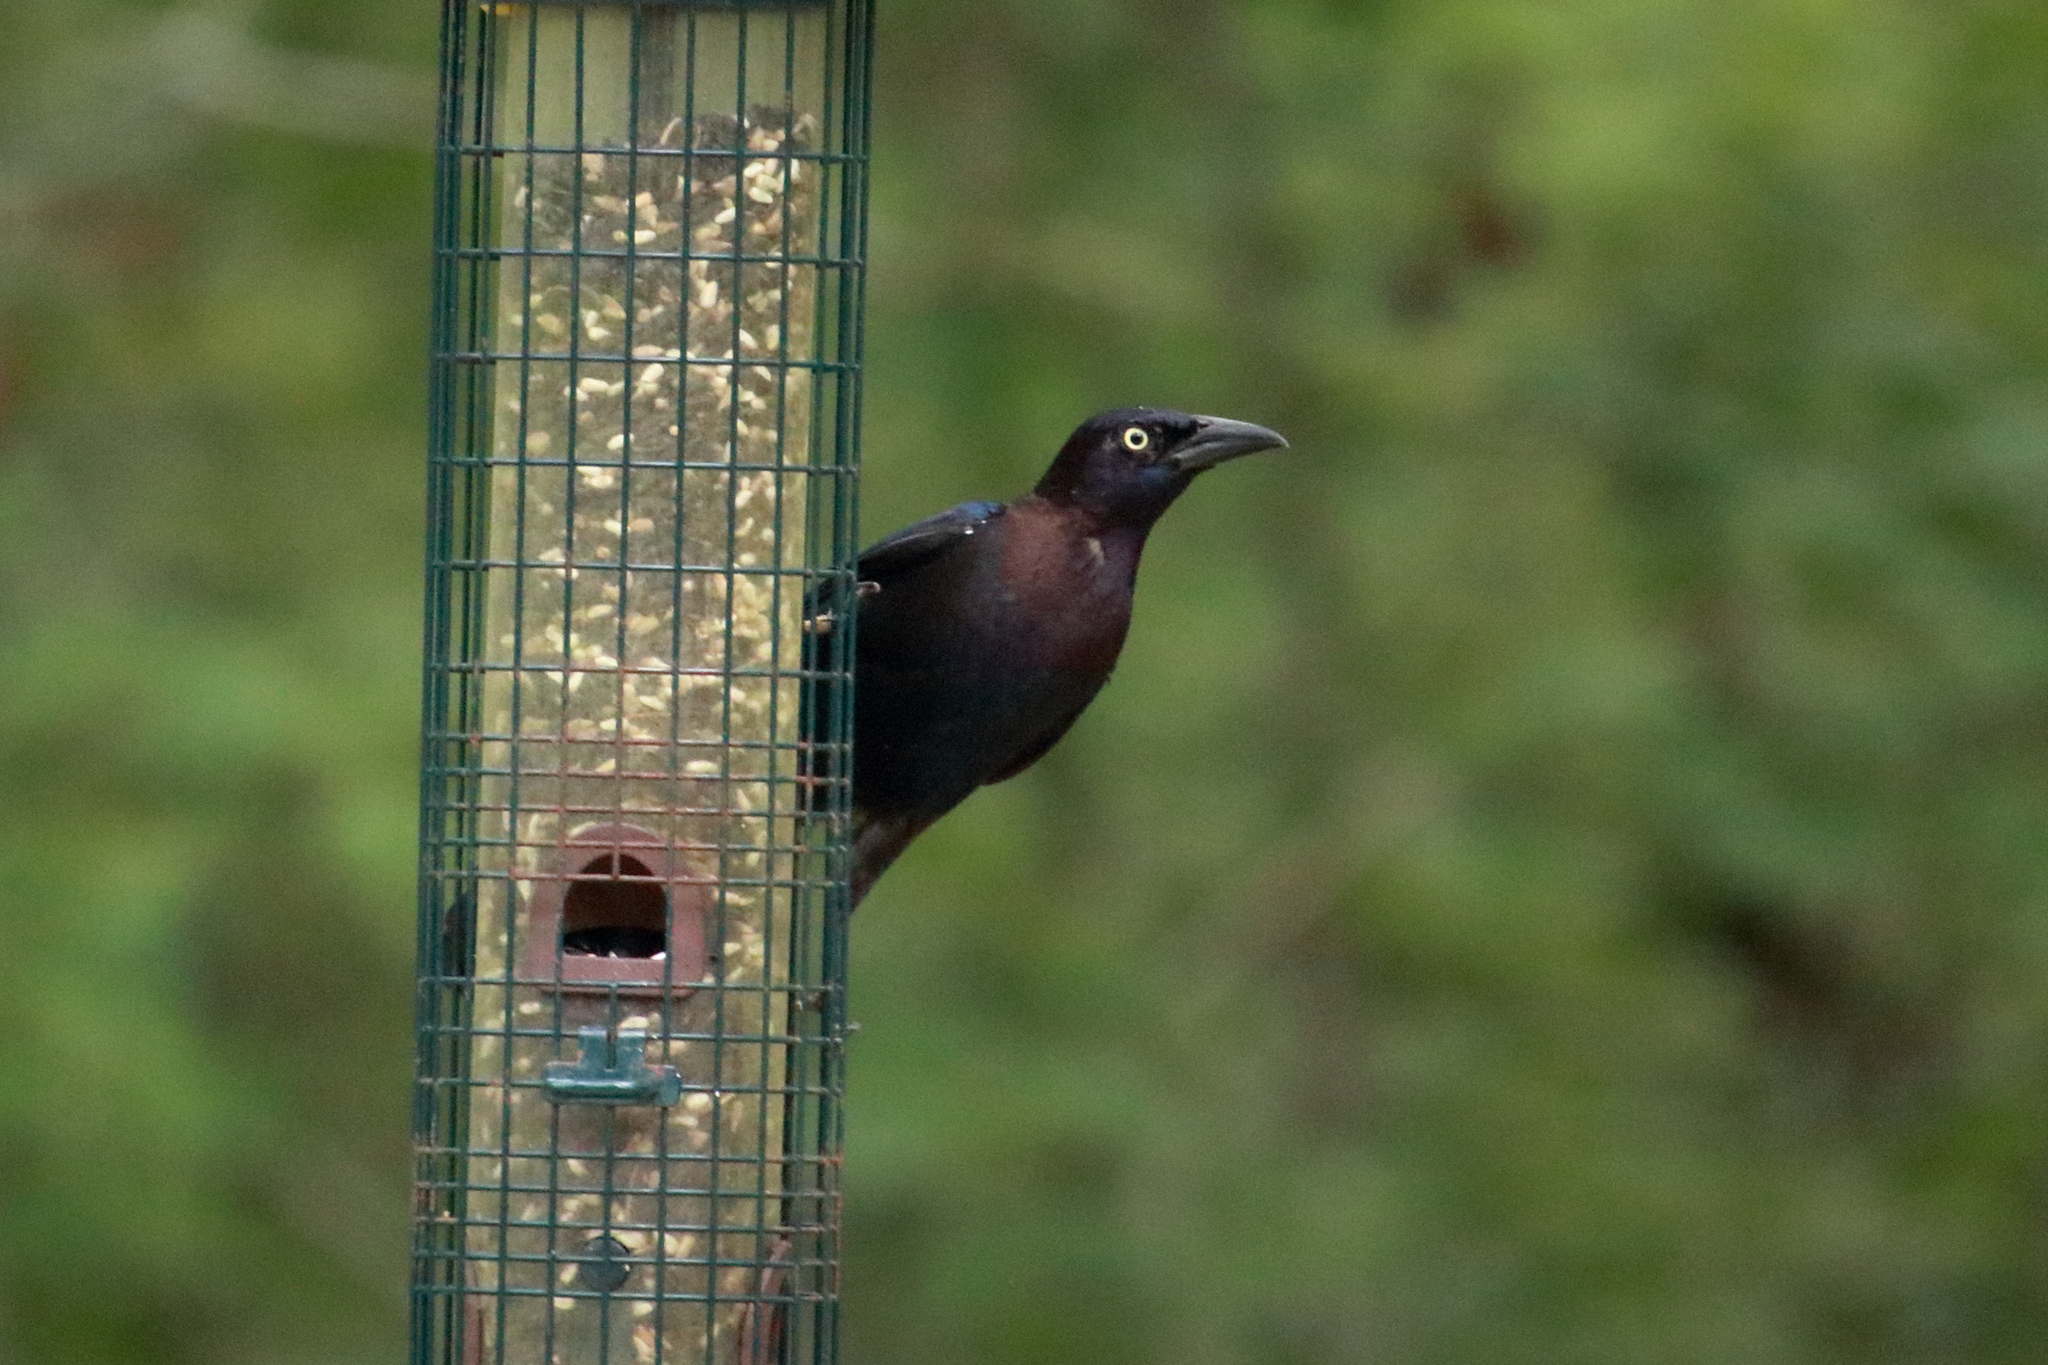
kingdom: Animalia
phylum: Chordata
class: Aves
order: Passeriformes
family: Icteridae
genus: Quiscalus
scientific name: Quiscalus quiscula
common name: Common grackle
